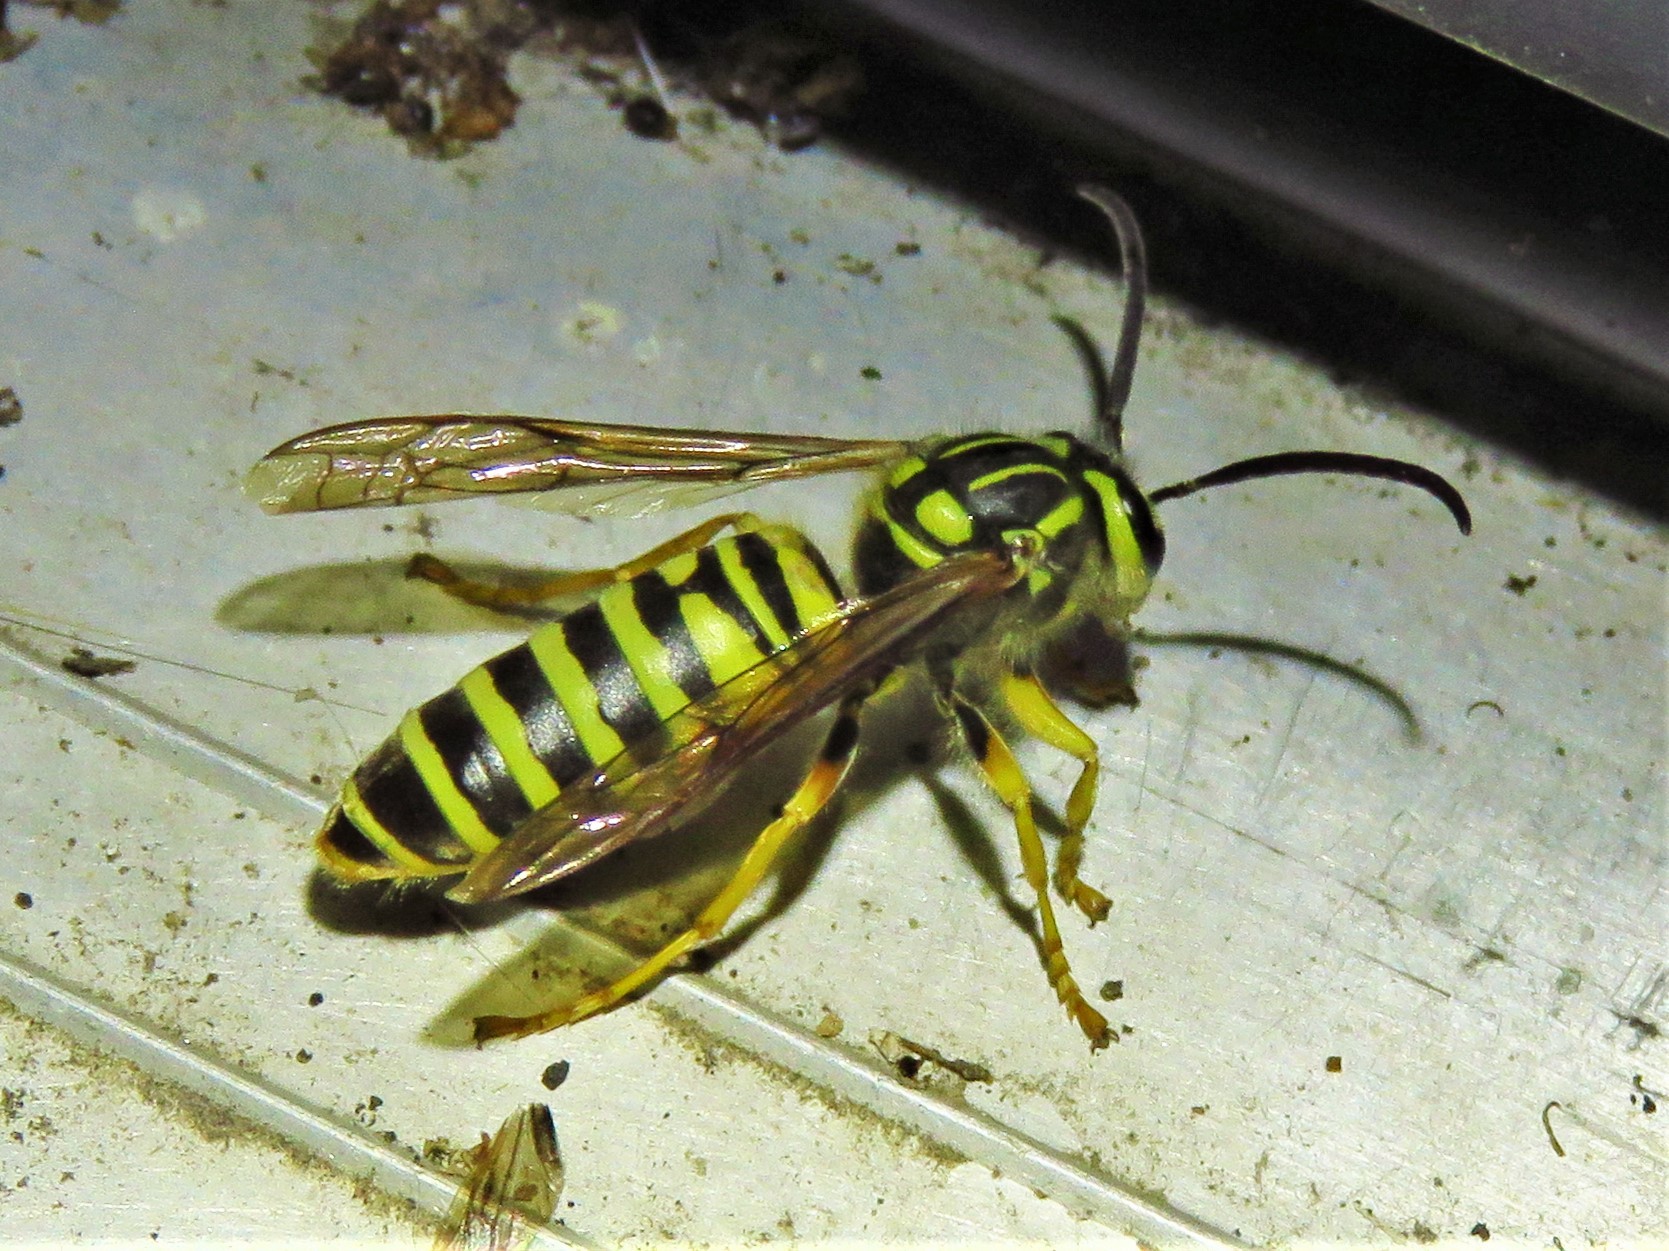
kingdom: Animalia
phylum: Arthropoda
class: Insecta
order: Hymenoptera
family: Vespidae
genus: Vespula
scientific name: Vespula squamosa
